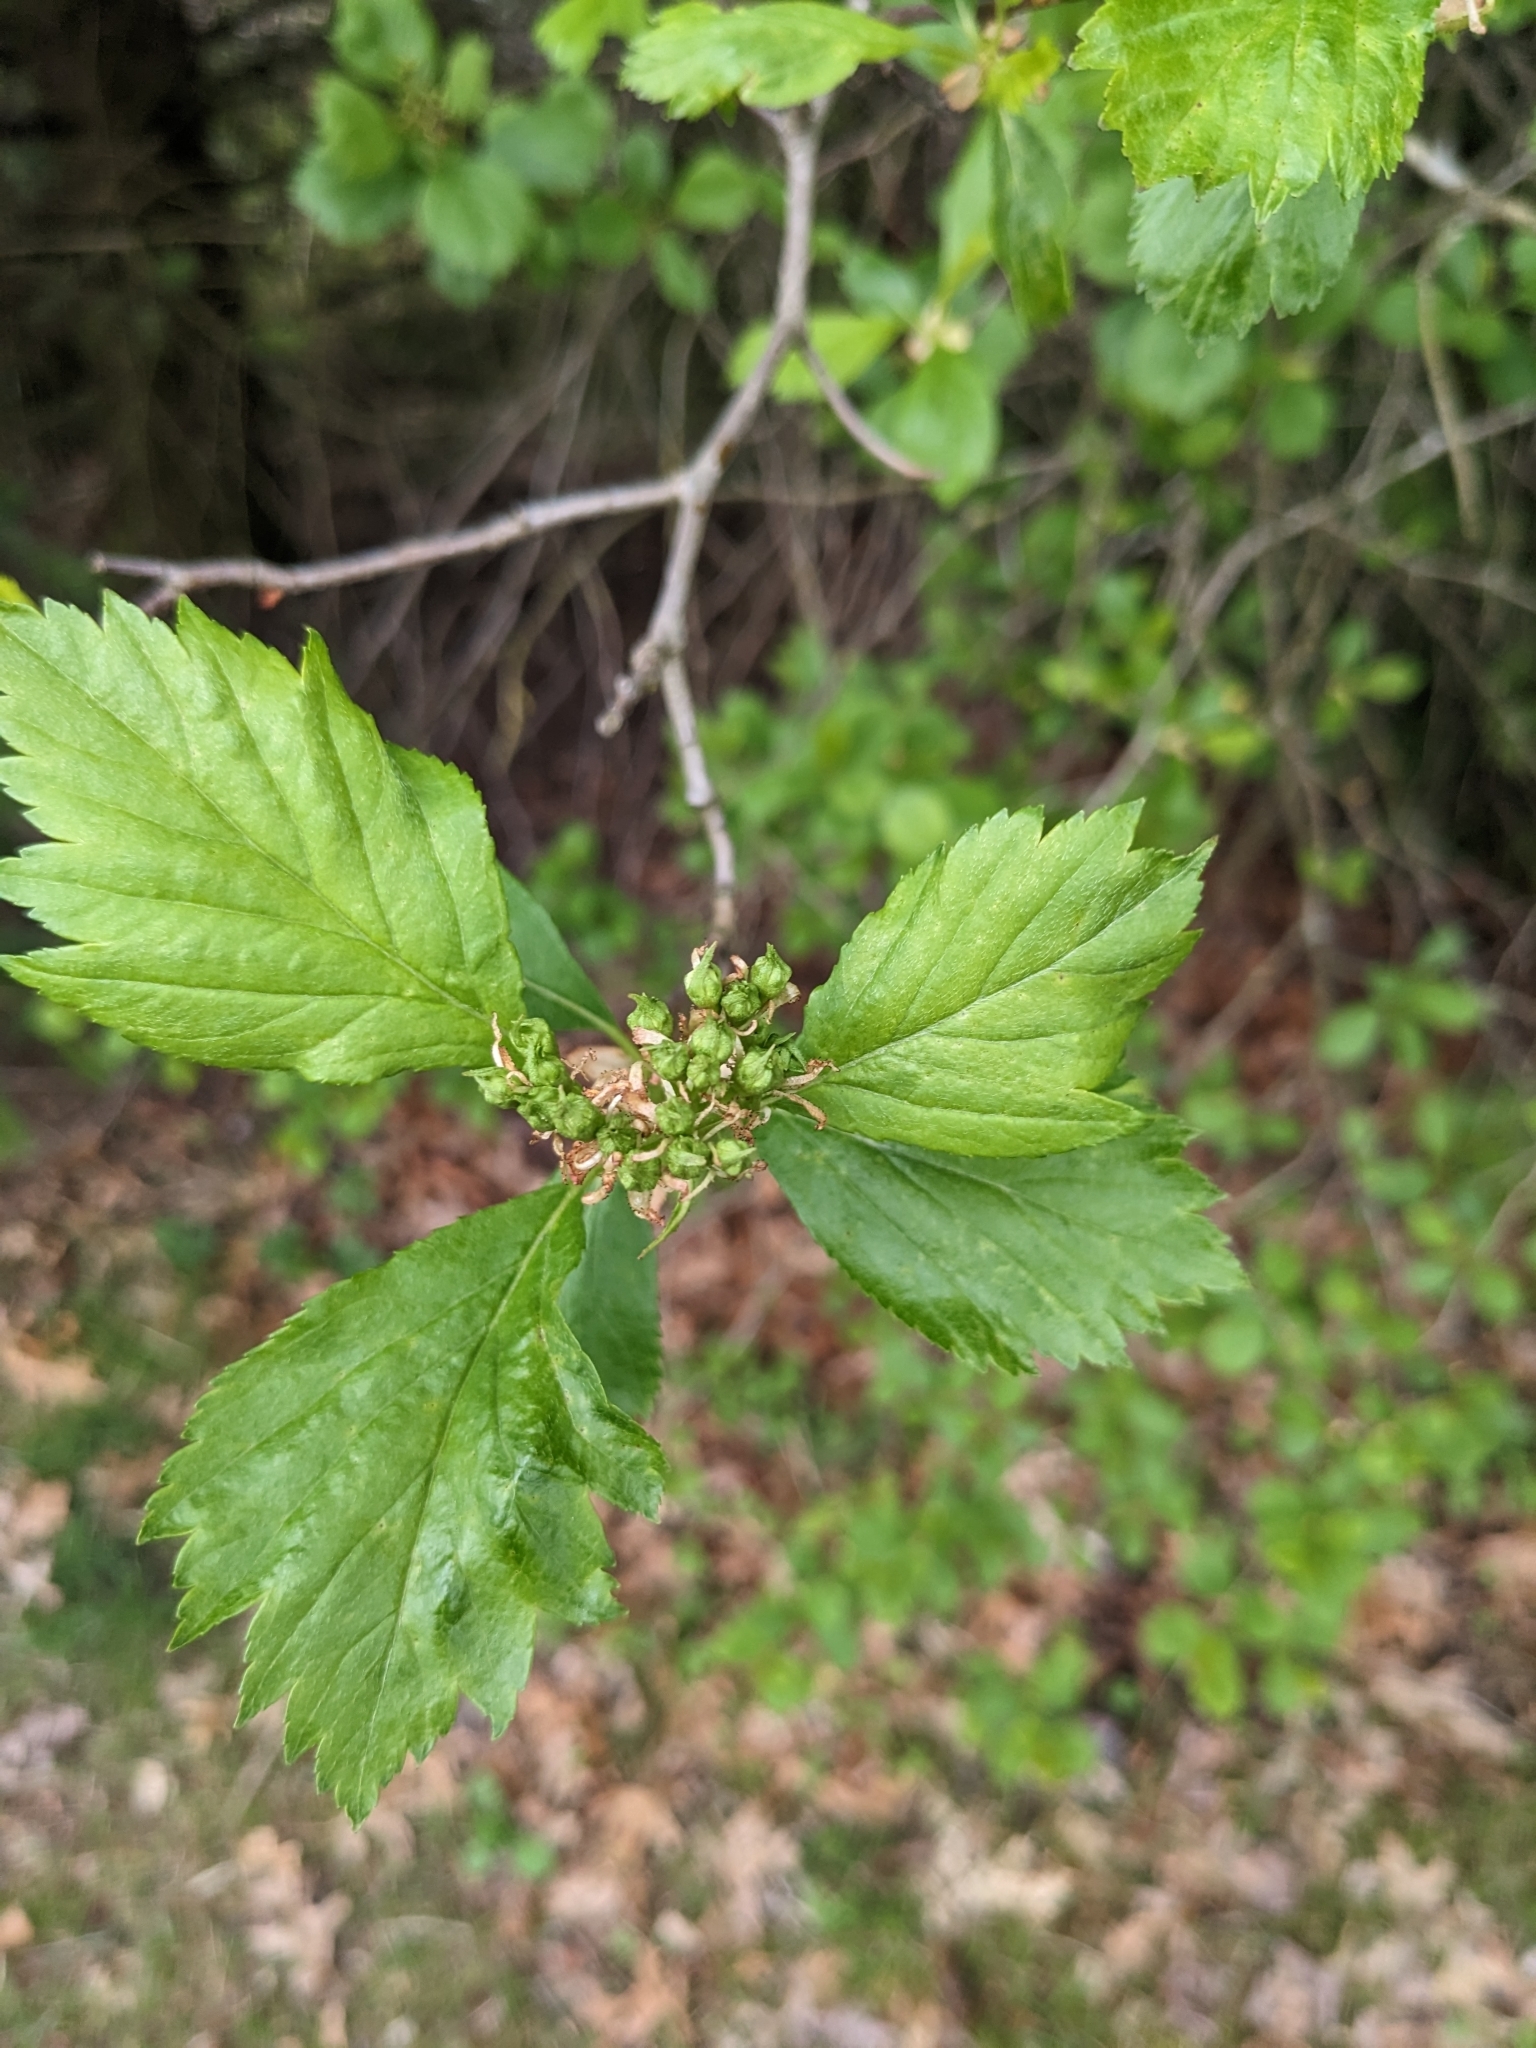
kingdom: Plantae
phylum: Tracheophyta
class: Magnoliopsida
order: Rosales
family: Rosaceae
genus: Crataegus
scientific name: Crataegus douglasii
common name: Black hawthorn
